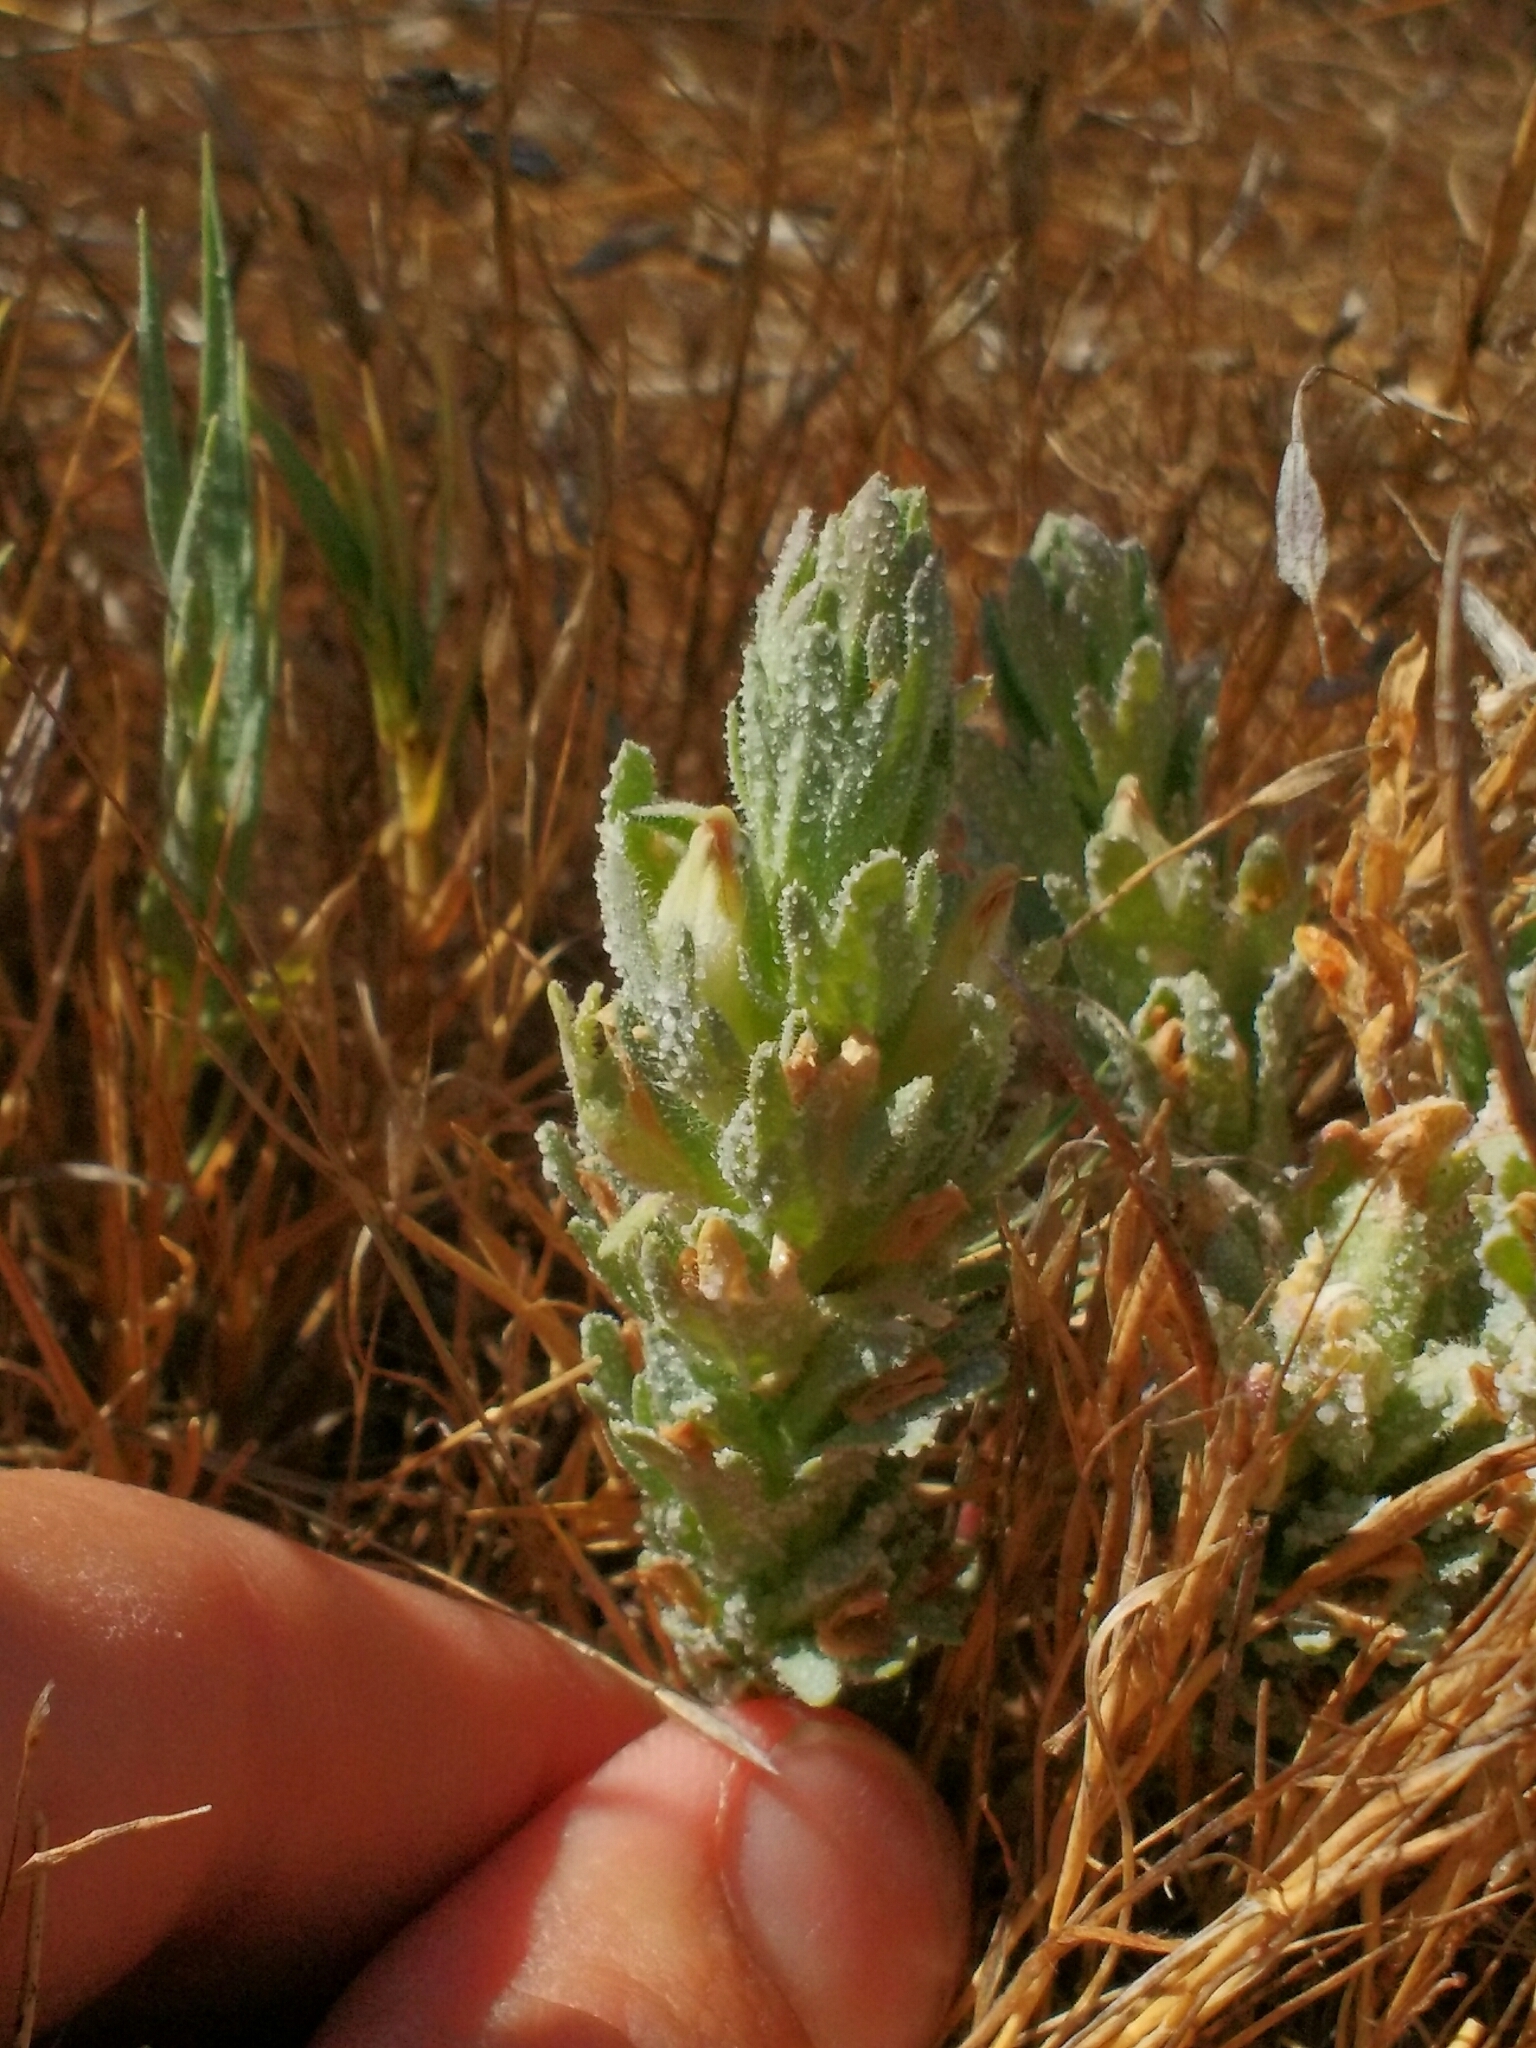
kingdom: Plantae
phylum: Tracheophyta
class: Magnoliopsida
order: Lamiales
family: Orobanchaceae
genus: Chloropyron
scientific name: Chloropyron palmatum
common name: Palmate salty bird's-beak
